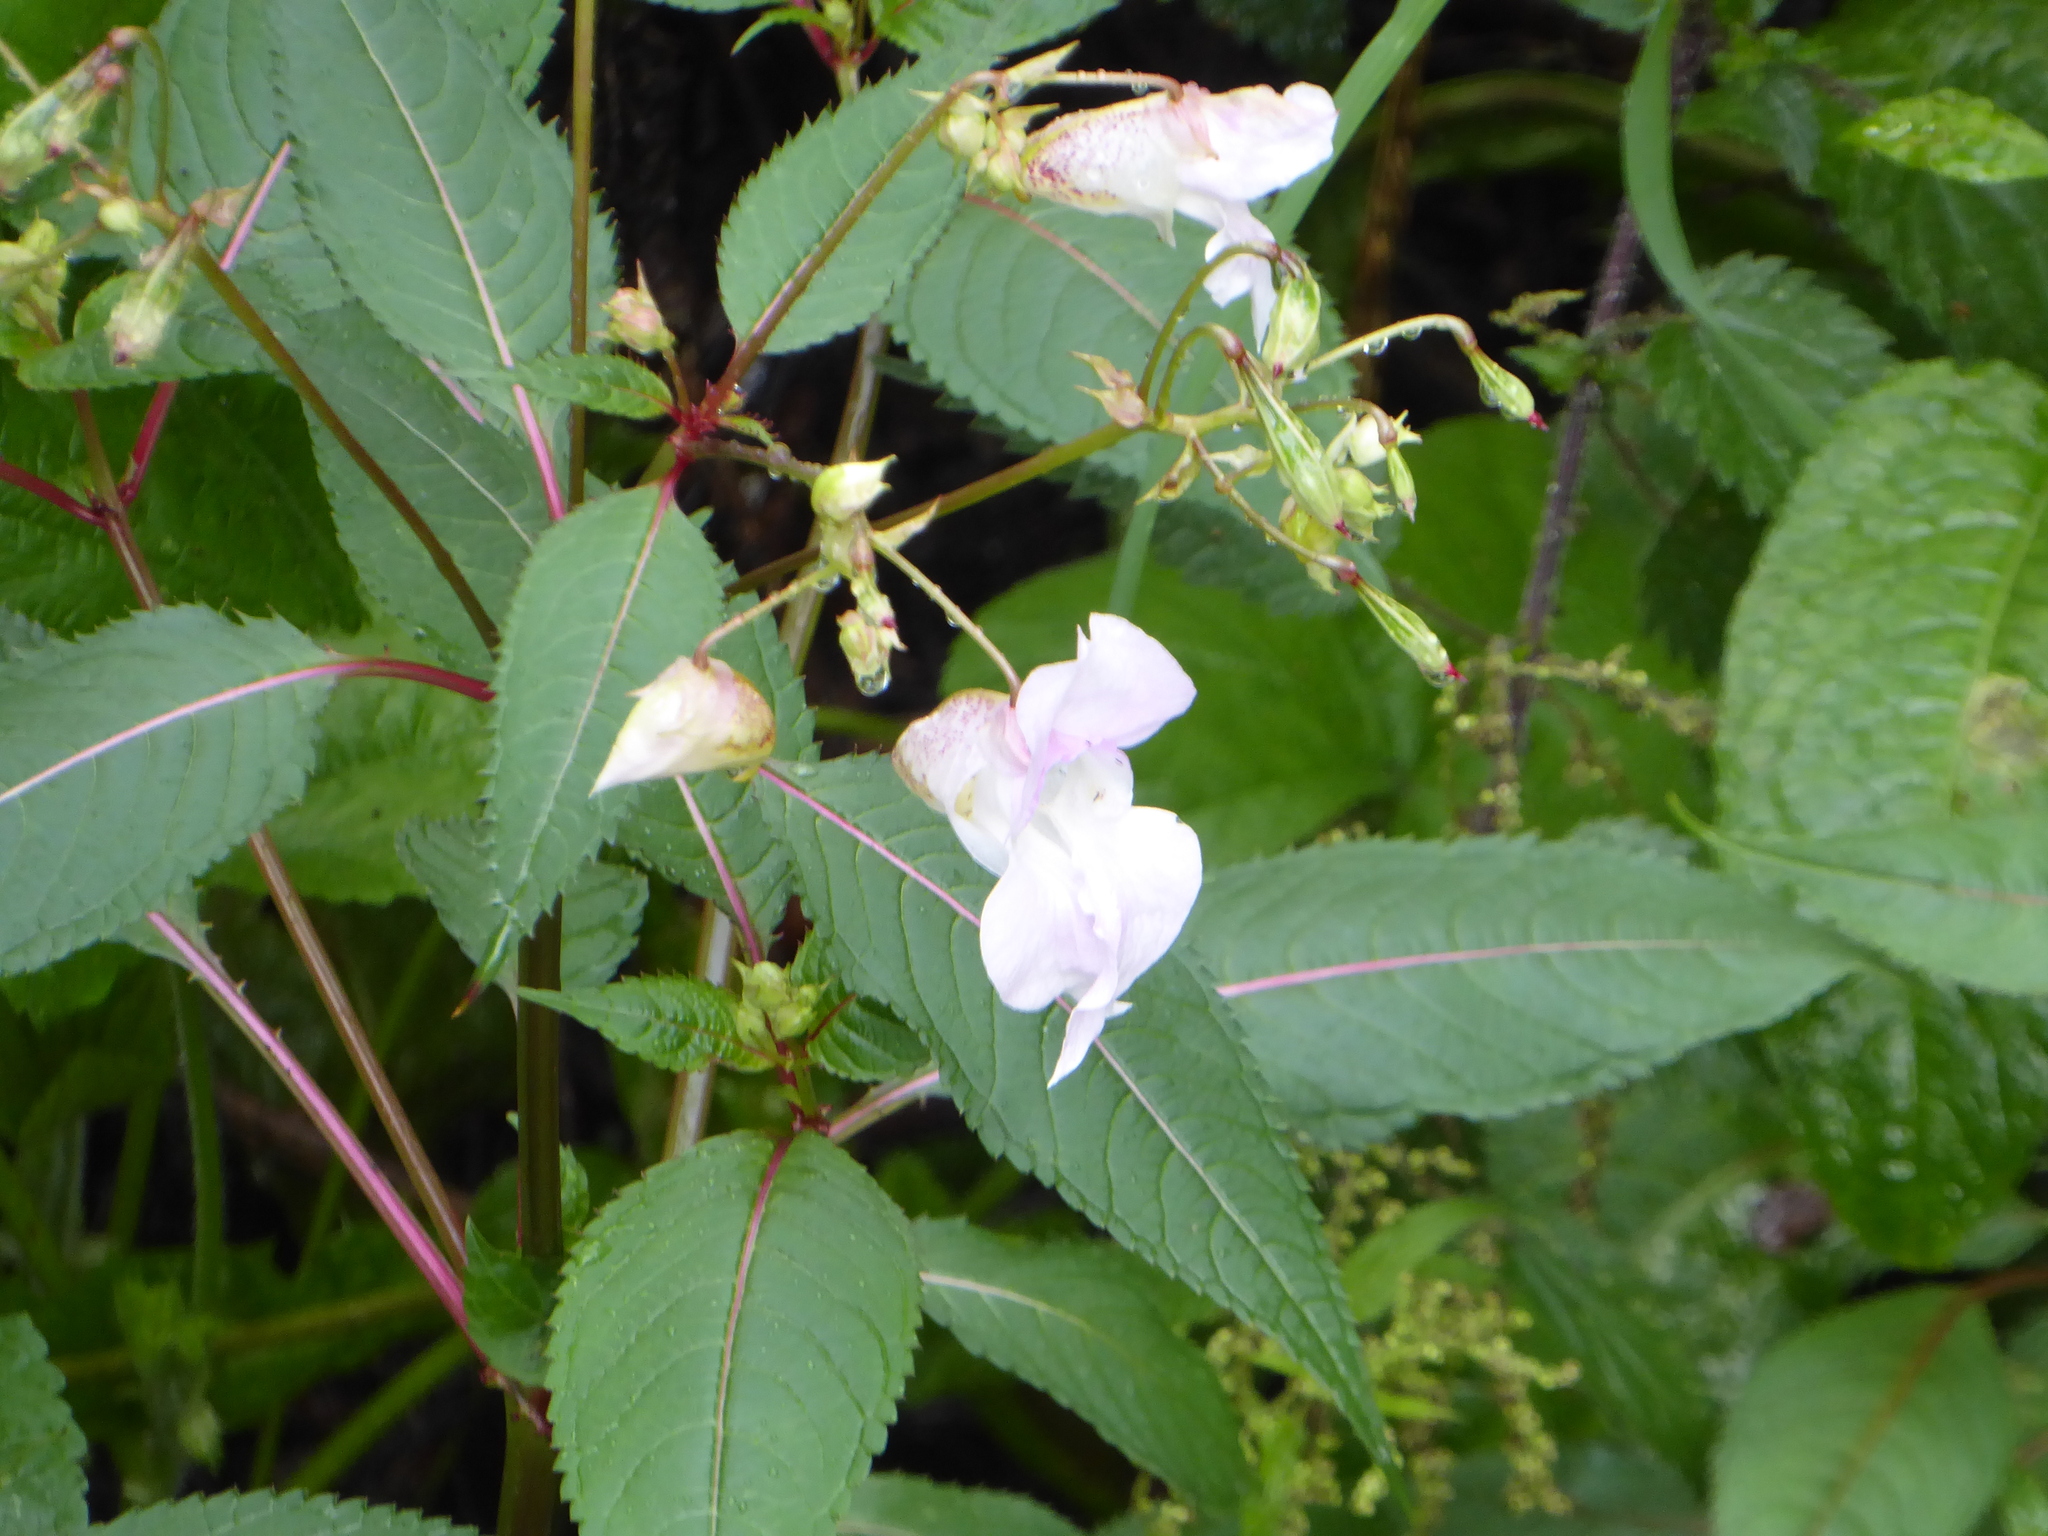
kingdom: Plantae
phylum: Tracheophyta
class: Magnoliopsida
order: Ericales
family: Balsaminaceae
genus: Impatiens
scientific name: Impatiens glandulifera
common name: Himalayan balsam
